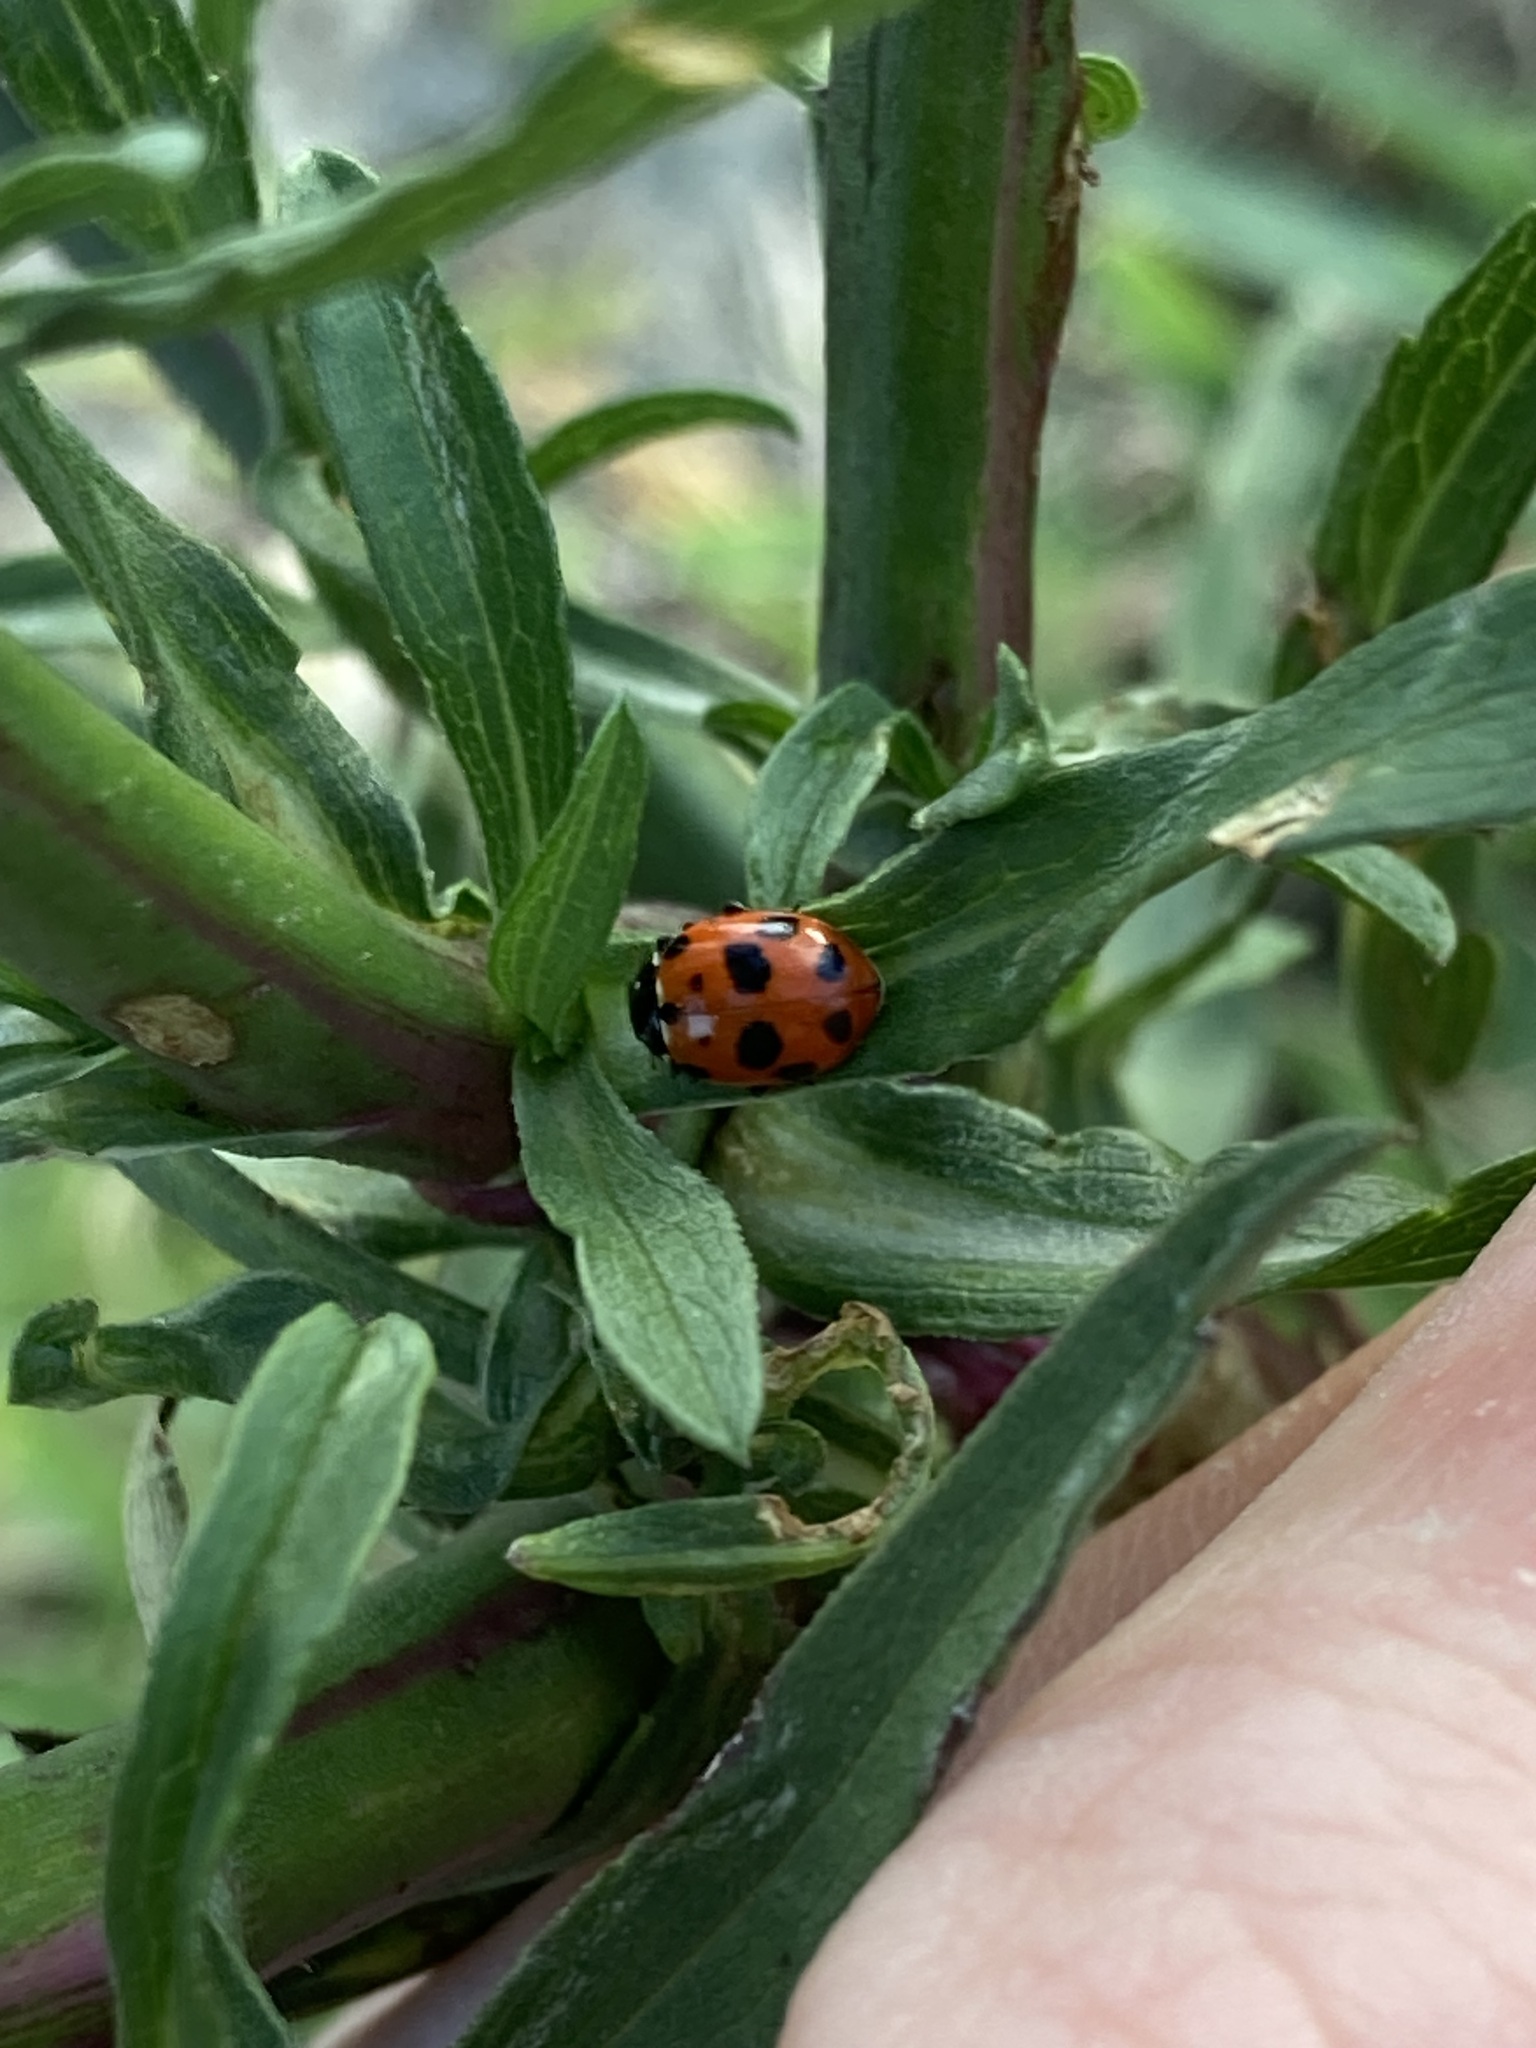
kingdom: Animalia
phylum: Arthropoda
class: Insecta
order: Coleoptera
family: Coccinellidae
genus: Hippodamia
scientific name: Hippodamia variegata
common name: Ladybird beetle
